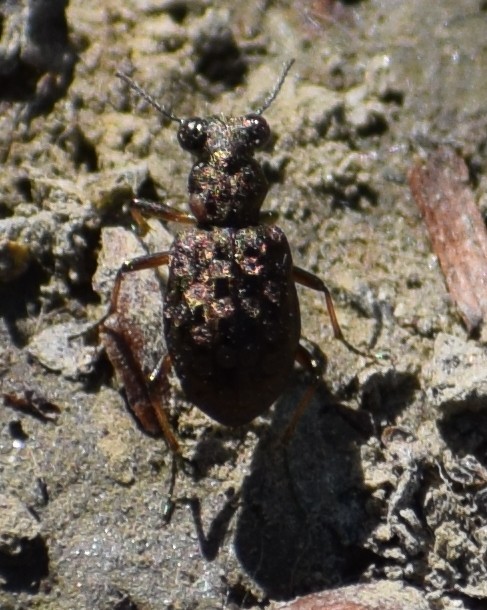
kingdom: Animalia
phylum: Arthropoda
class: Insecta
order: Coleoptera
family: Carabidae
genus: Elaphrus
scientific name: Elaphrus
